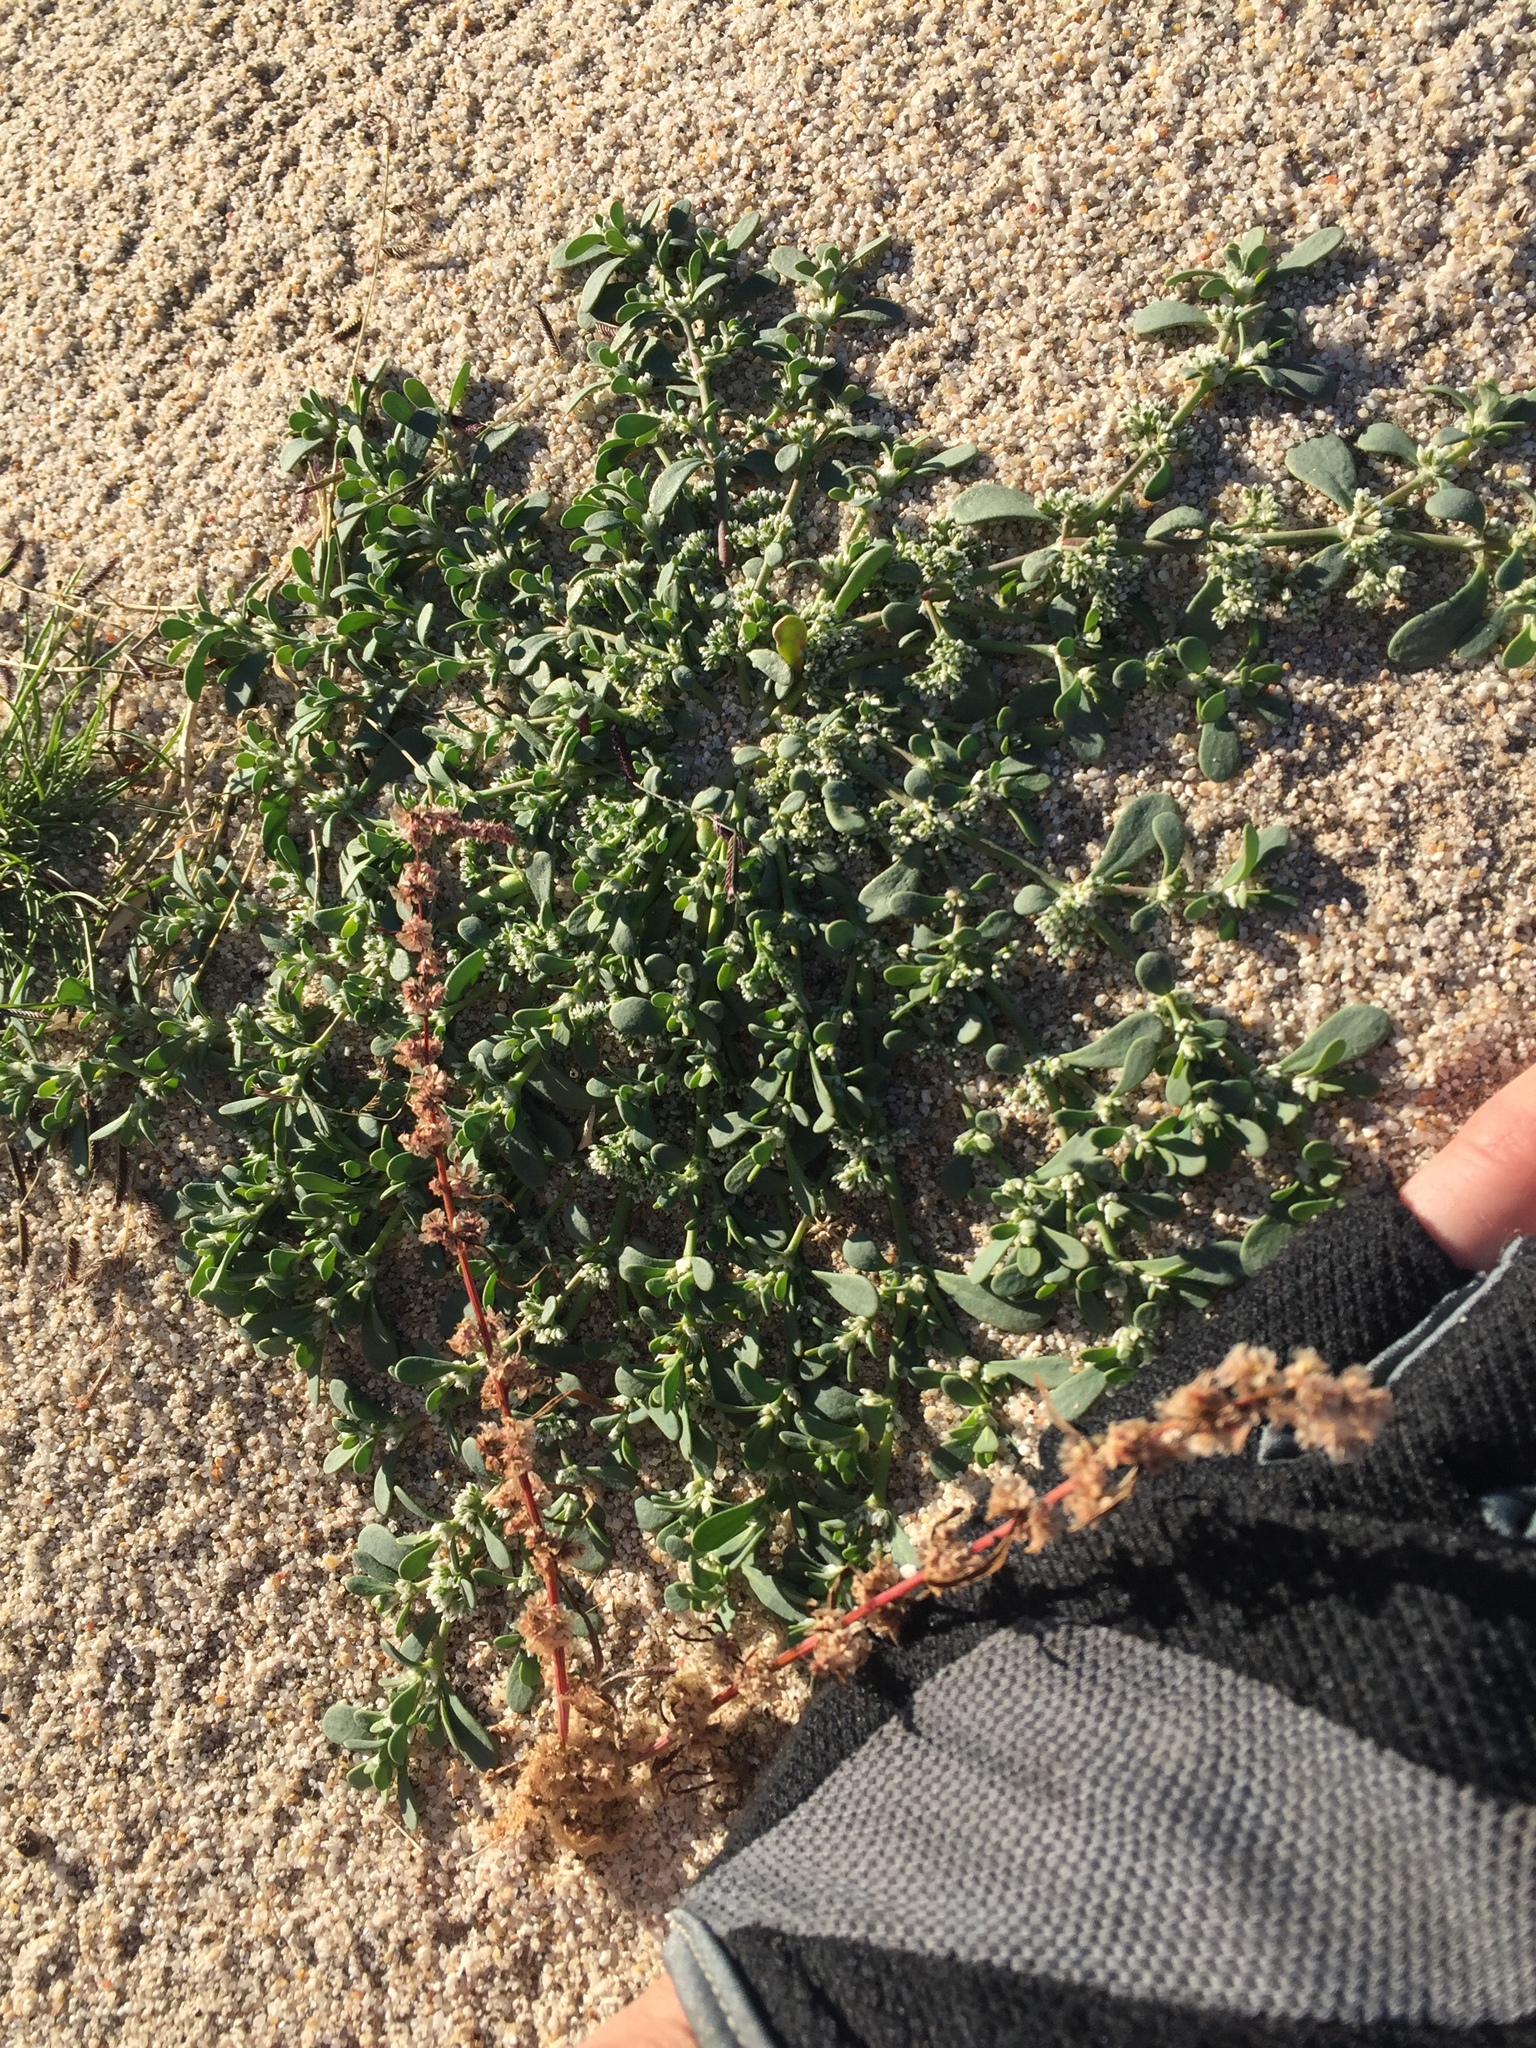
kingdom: Plantae
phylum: Tracheophyta
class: Magnoliopsida
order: Caryophyllales
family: Amaranthaceae
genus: Amaranthus
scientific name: Amaranthus fimbriatus
